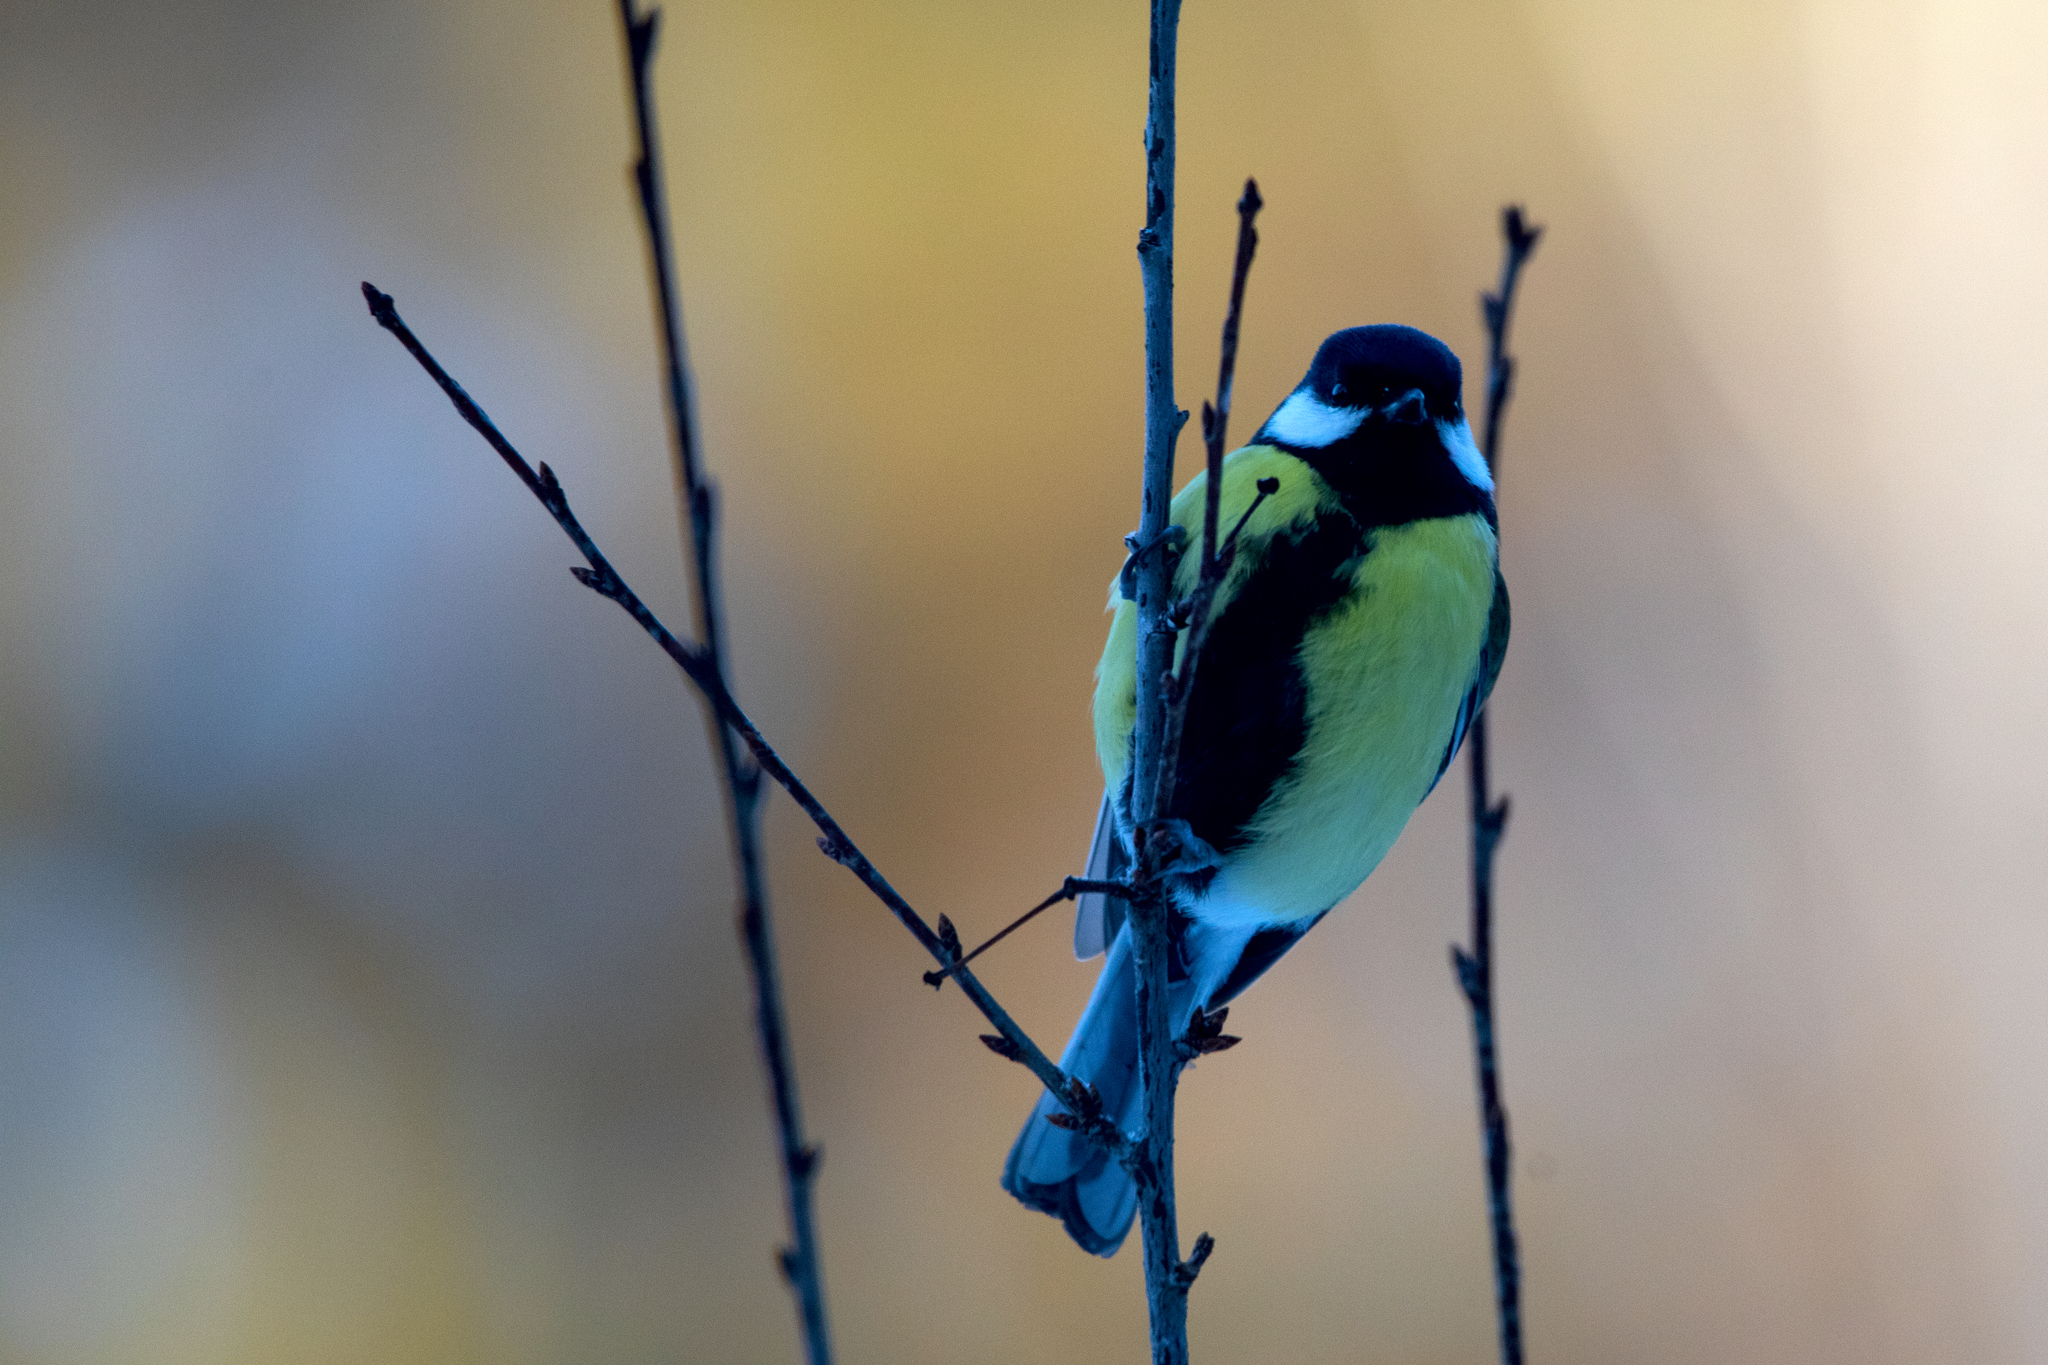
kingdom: Animalia
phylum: Chordata
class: Aves
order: Passeriformes
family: Paridae
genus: Parus
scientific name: Parus major
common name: Great tit
